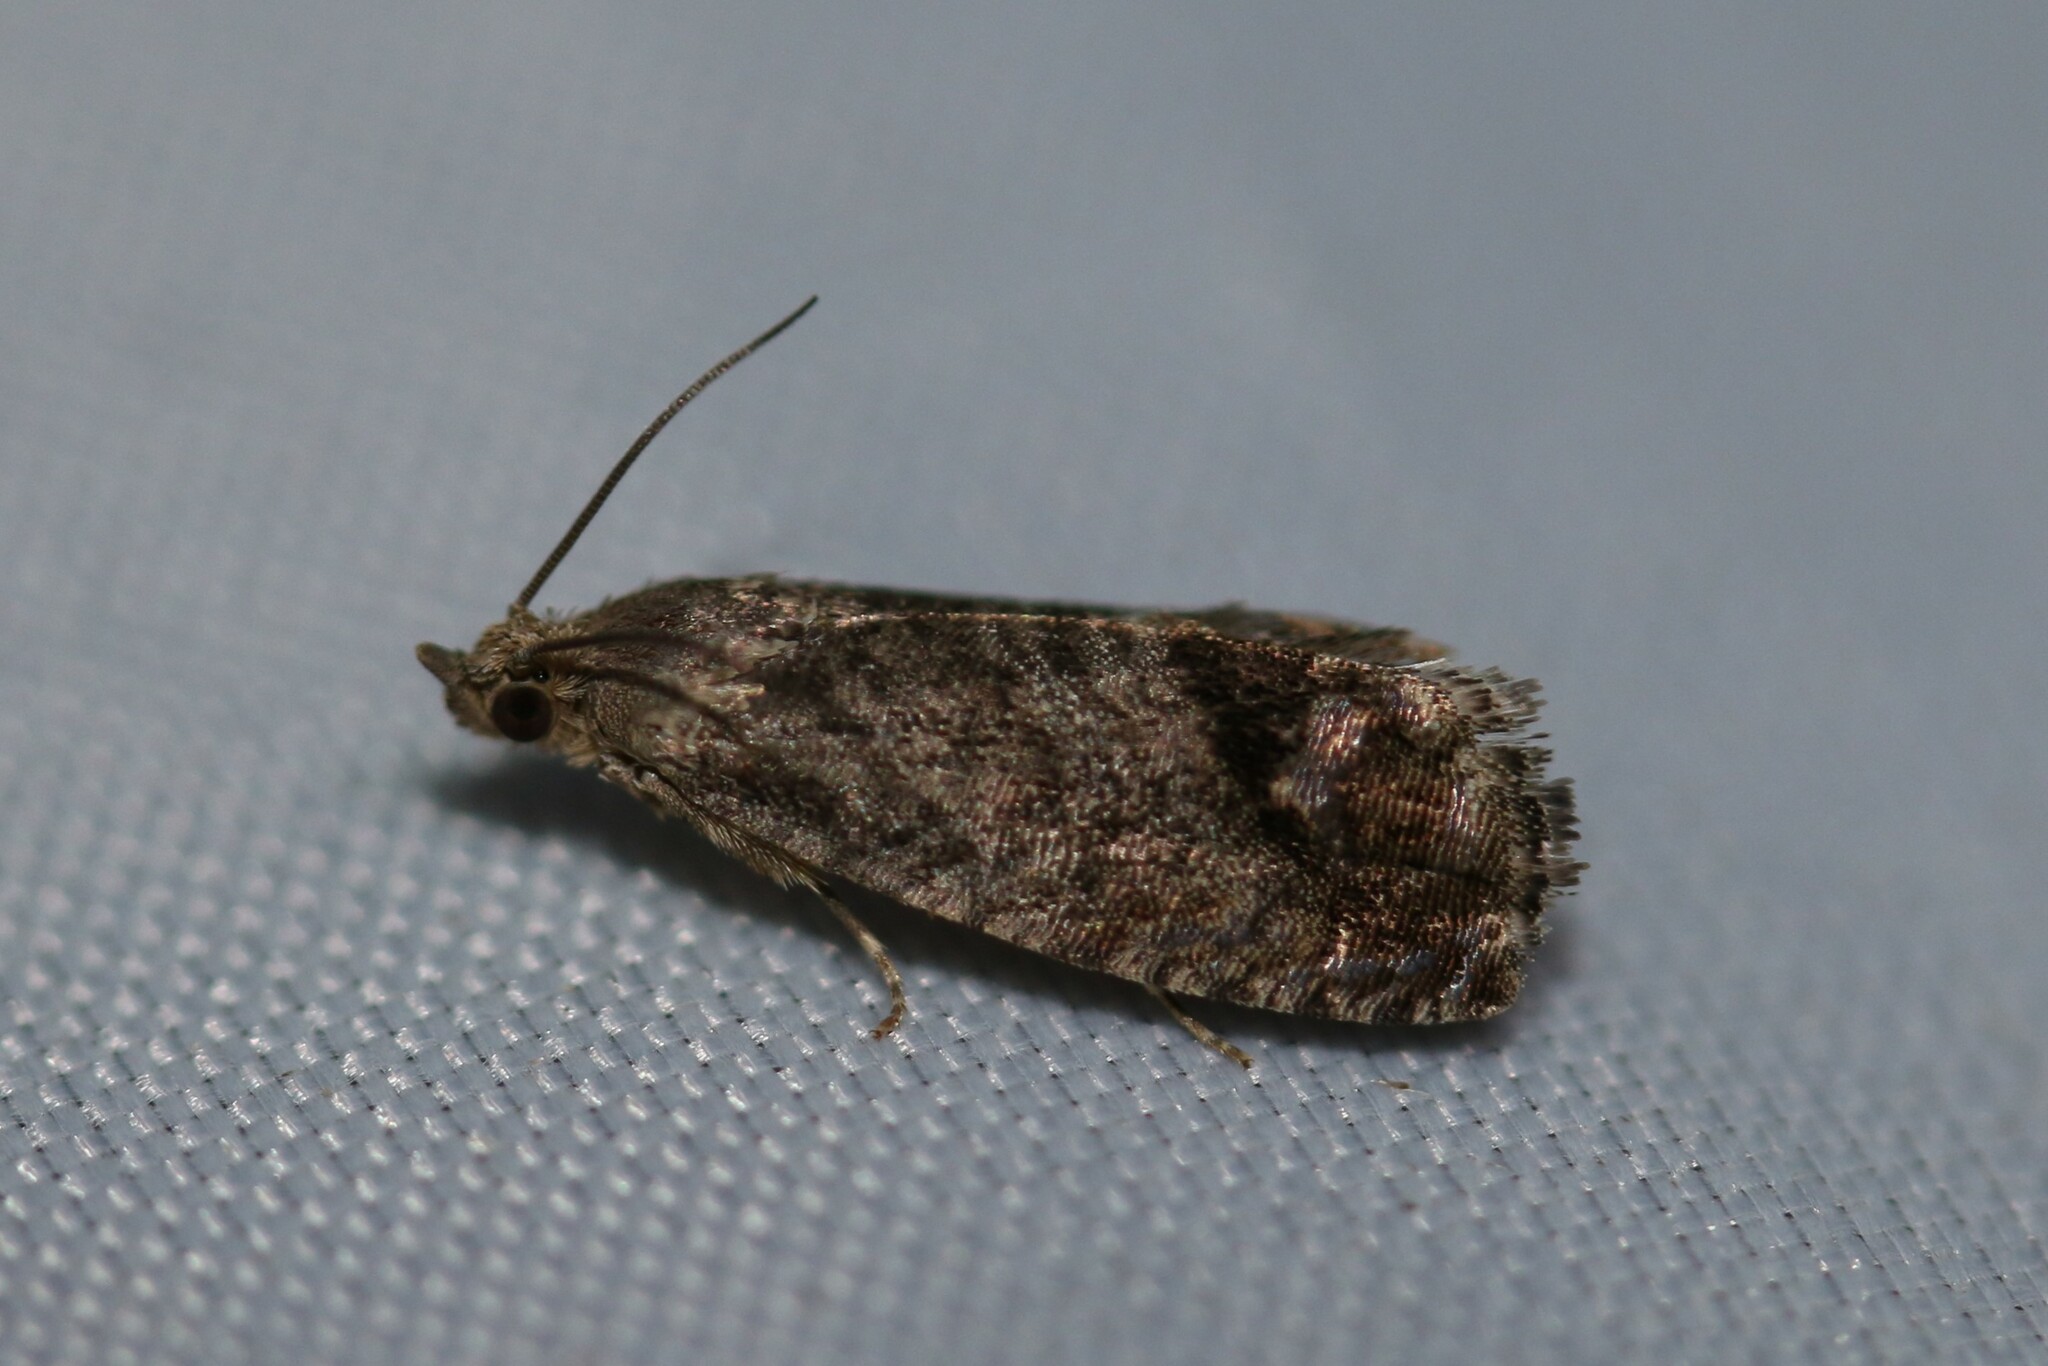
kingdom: Animalia
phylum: Arthropoda
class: Insecta
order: Lepidoptera
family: Tortricidae
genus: Cydia
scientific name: Cydia splendana
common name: De: kastanienwickler, eichenwickler es: oruga de la castaña fr: carpocapse des châtaignes it: cidia o tortrice tardiva delle castagne pt: bichado das castanhas gb: acorn moth, chestnut fruit tortrix
